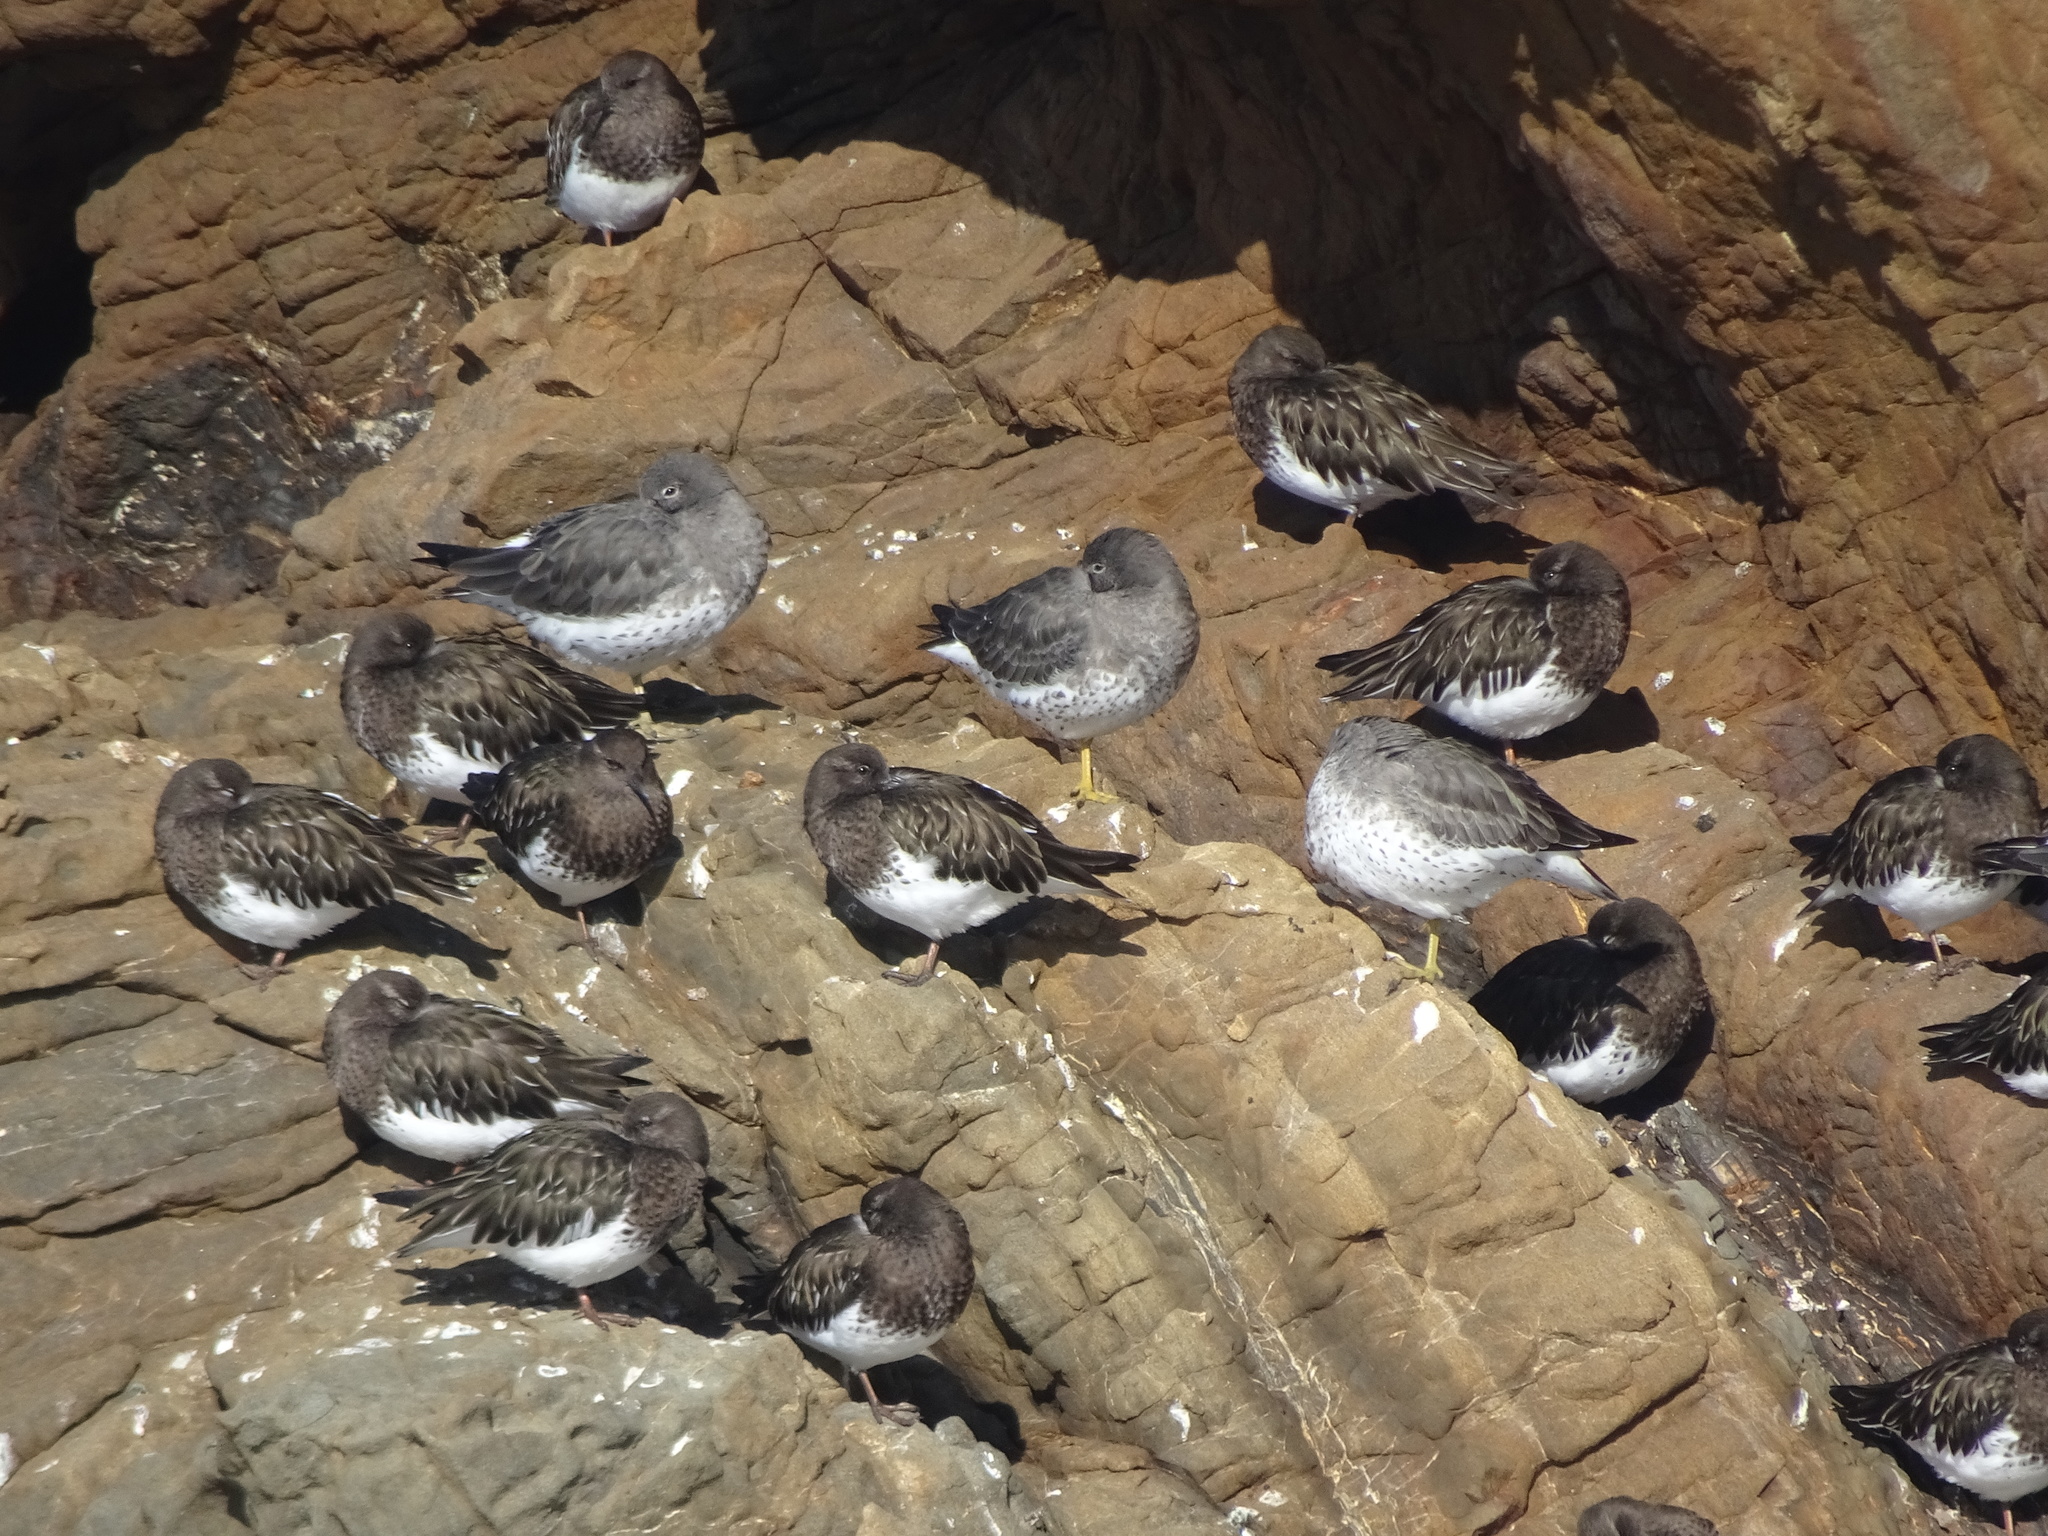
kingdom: Animalia
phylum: Chordata
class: Aves
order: Charadriiformes
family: Scolopacidae
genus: Arenaria
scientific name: Arenaria melanocephala
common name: Black turnstone
